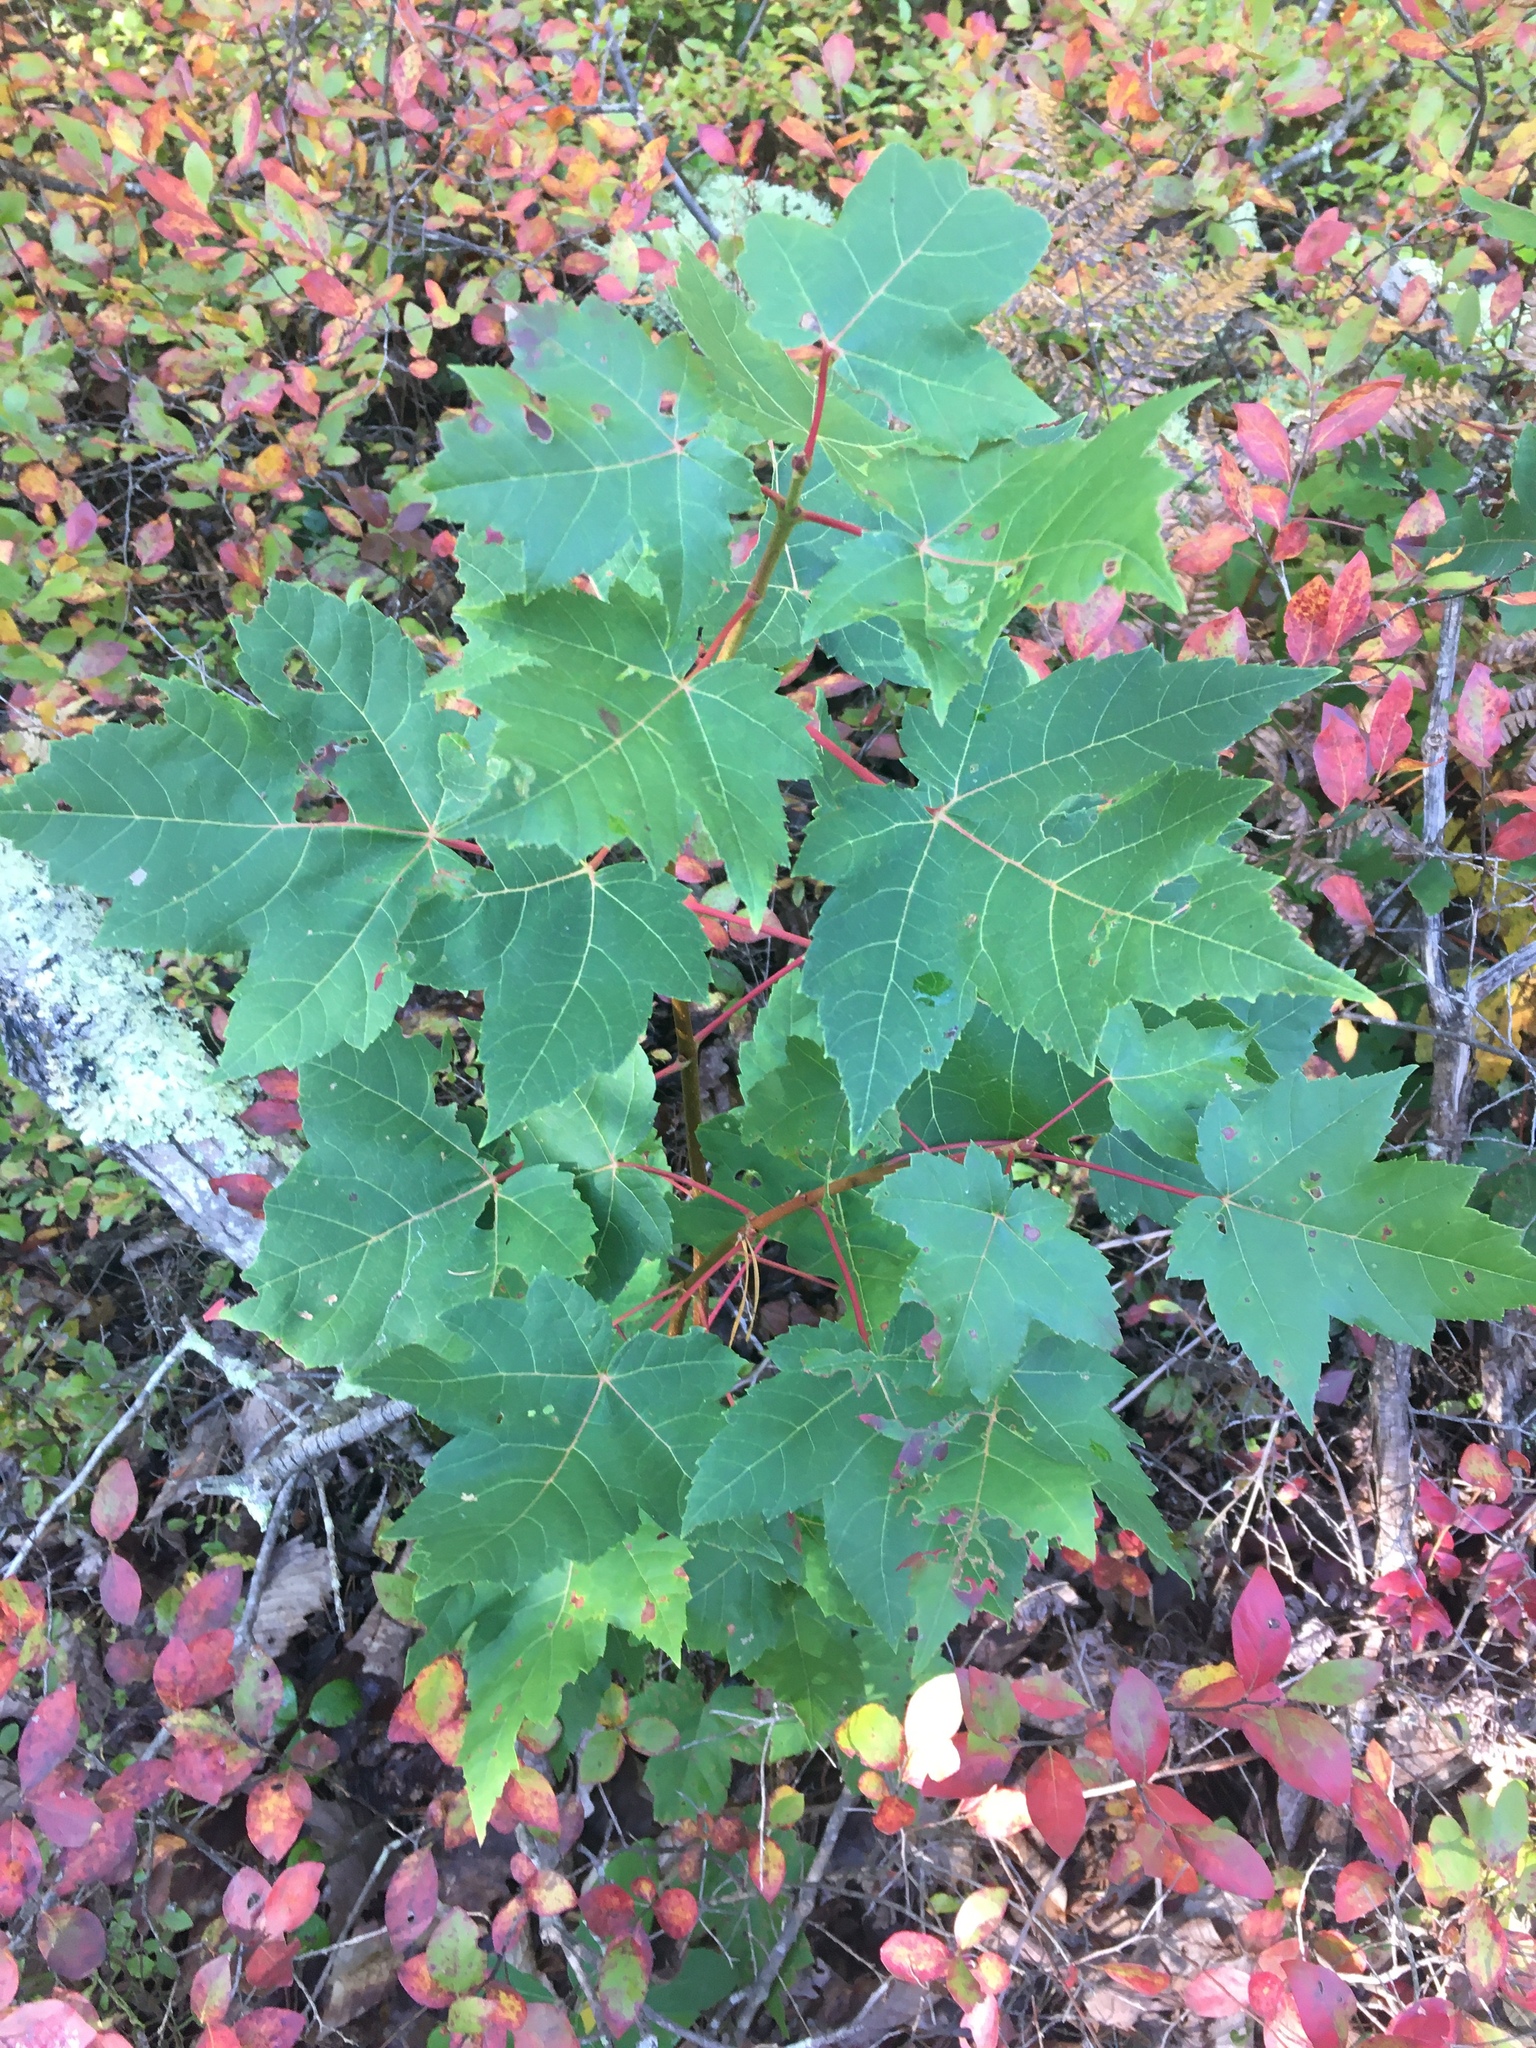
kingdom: Plantae
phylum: Tracheophyta
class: Magnoliopsida
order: Sapindales
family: Sapindaceae
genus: Acer
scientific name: Acer rubrum
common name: Red maple
